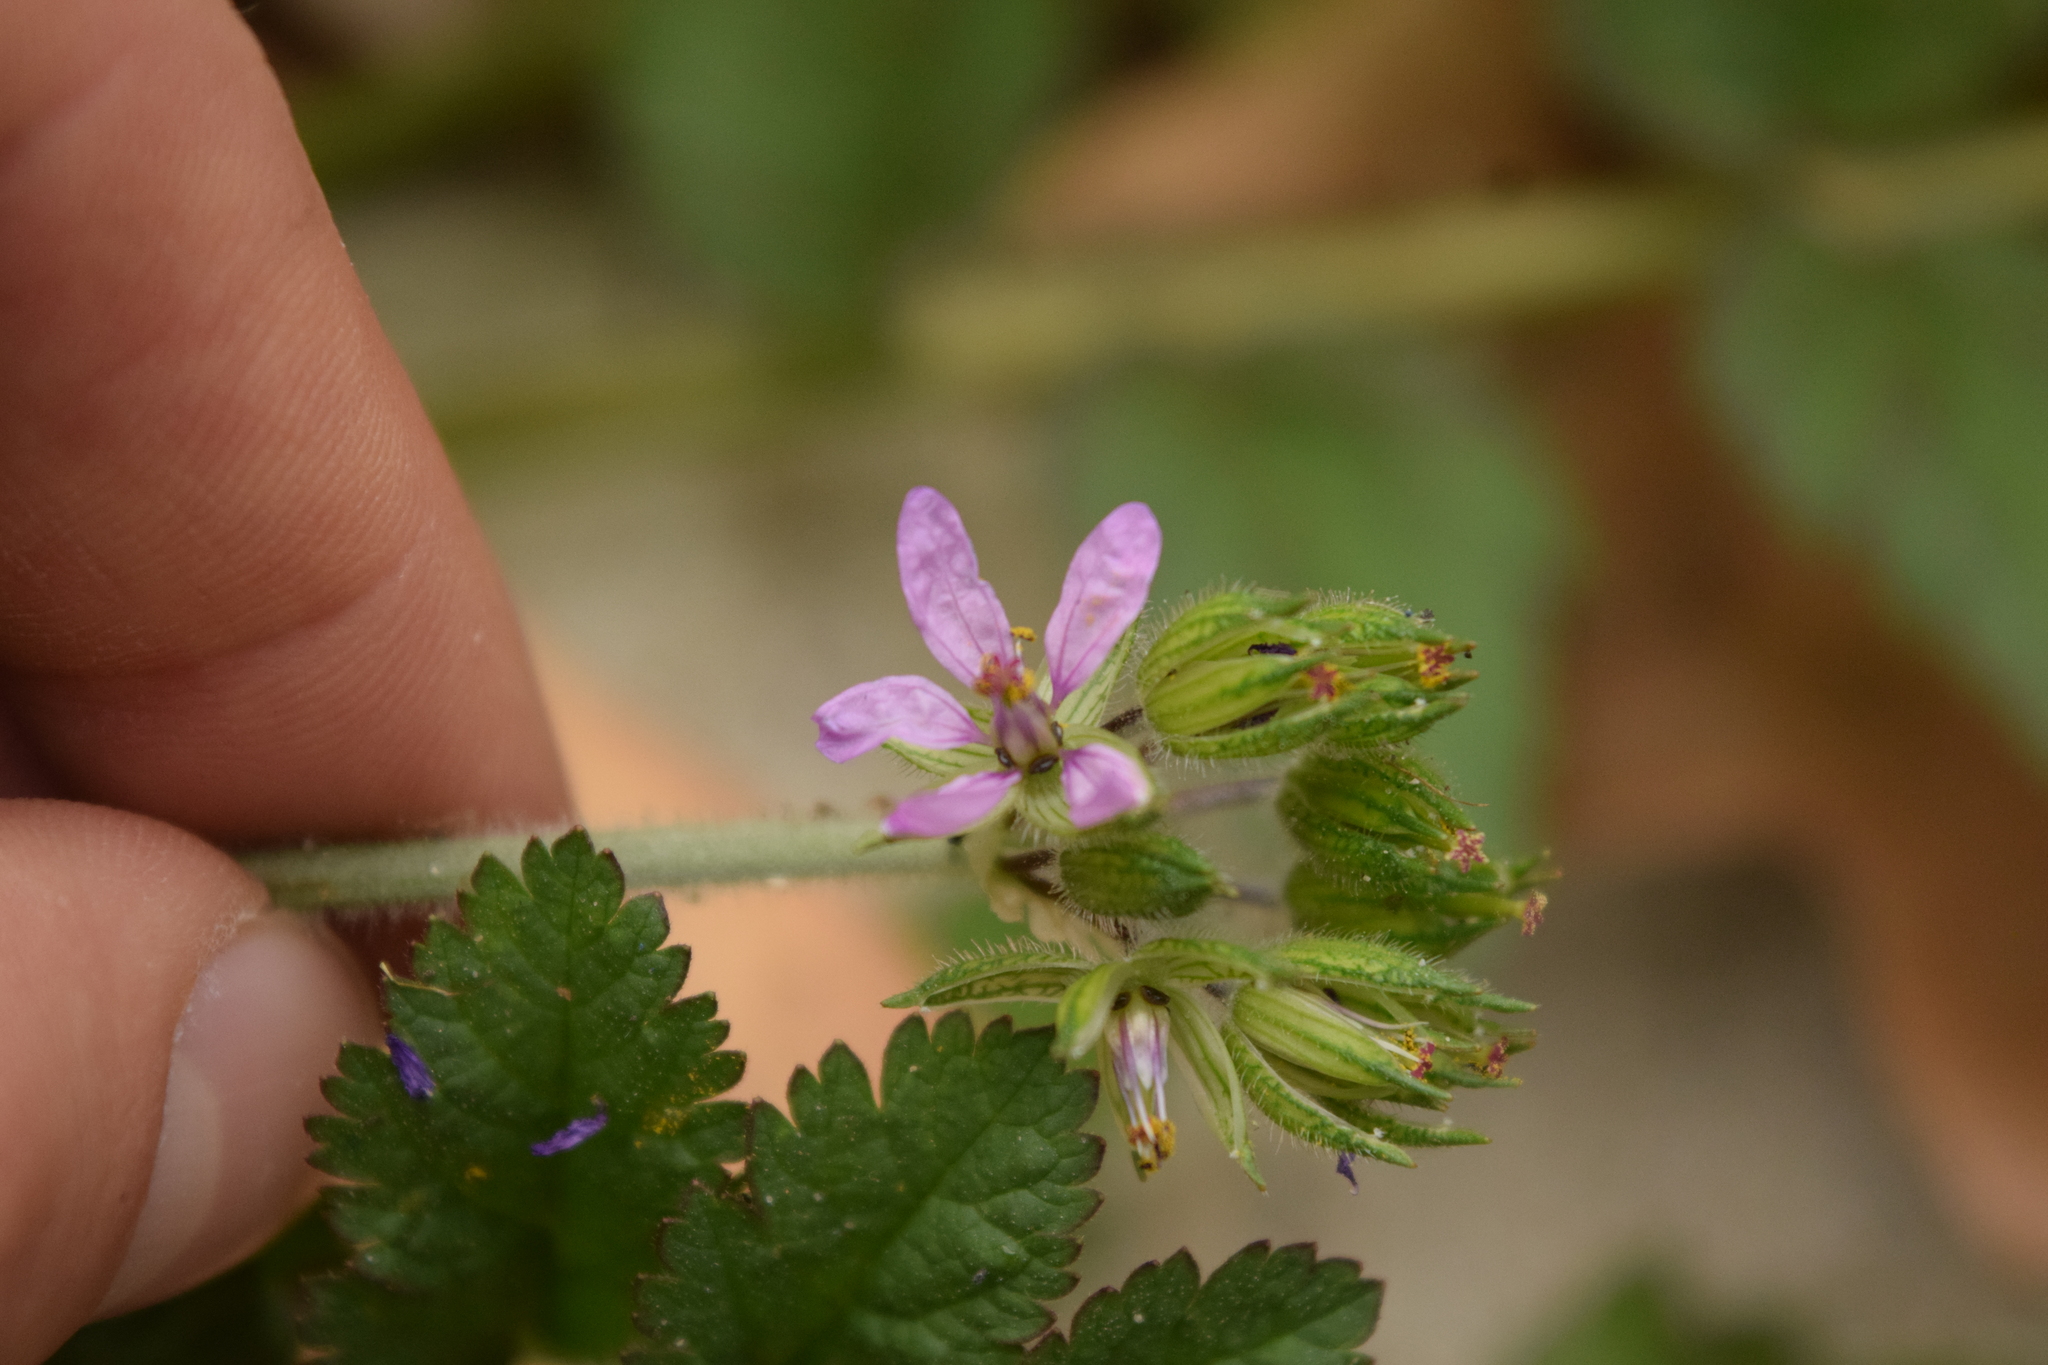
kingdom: Plantae
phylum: Tracheophyta
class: Magnoliopsida
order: Geraniales
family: Geraniaceae
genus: Erodium
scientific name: Erodium moschatum
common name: Musk stork's-bill
